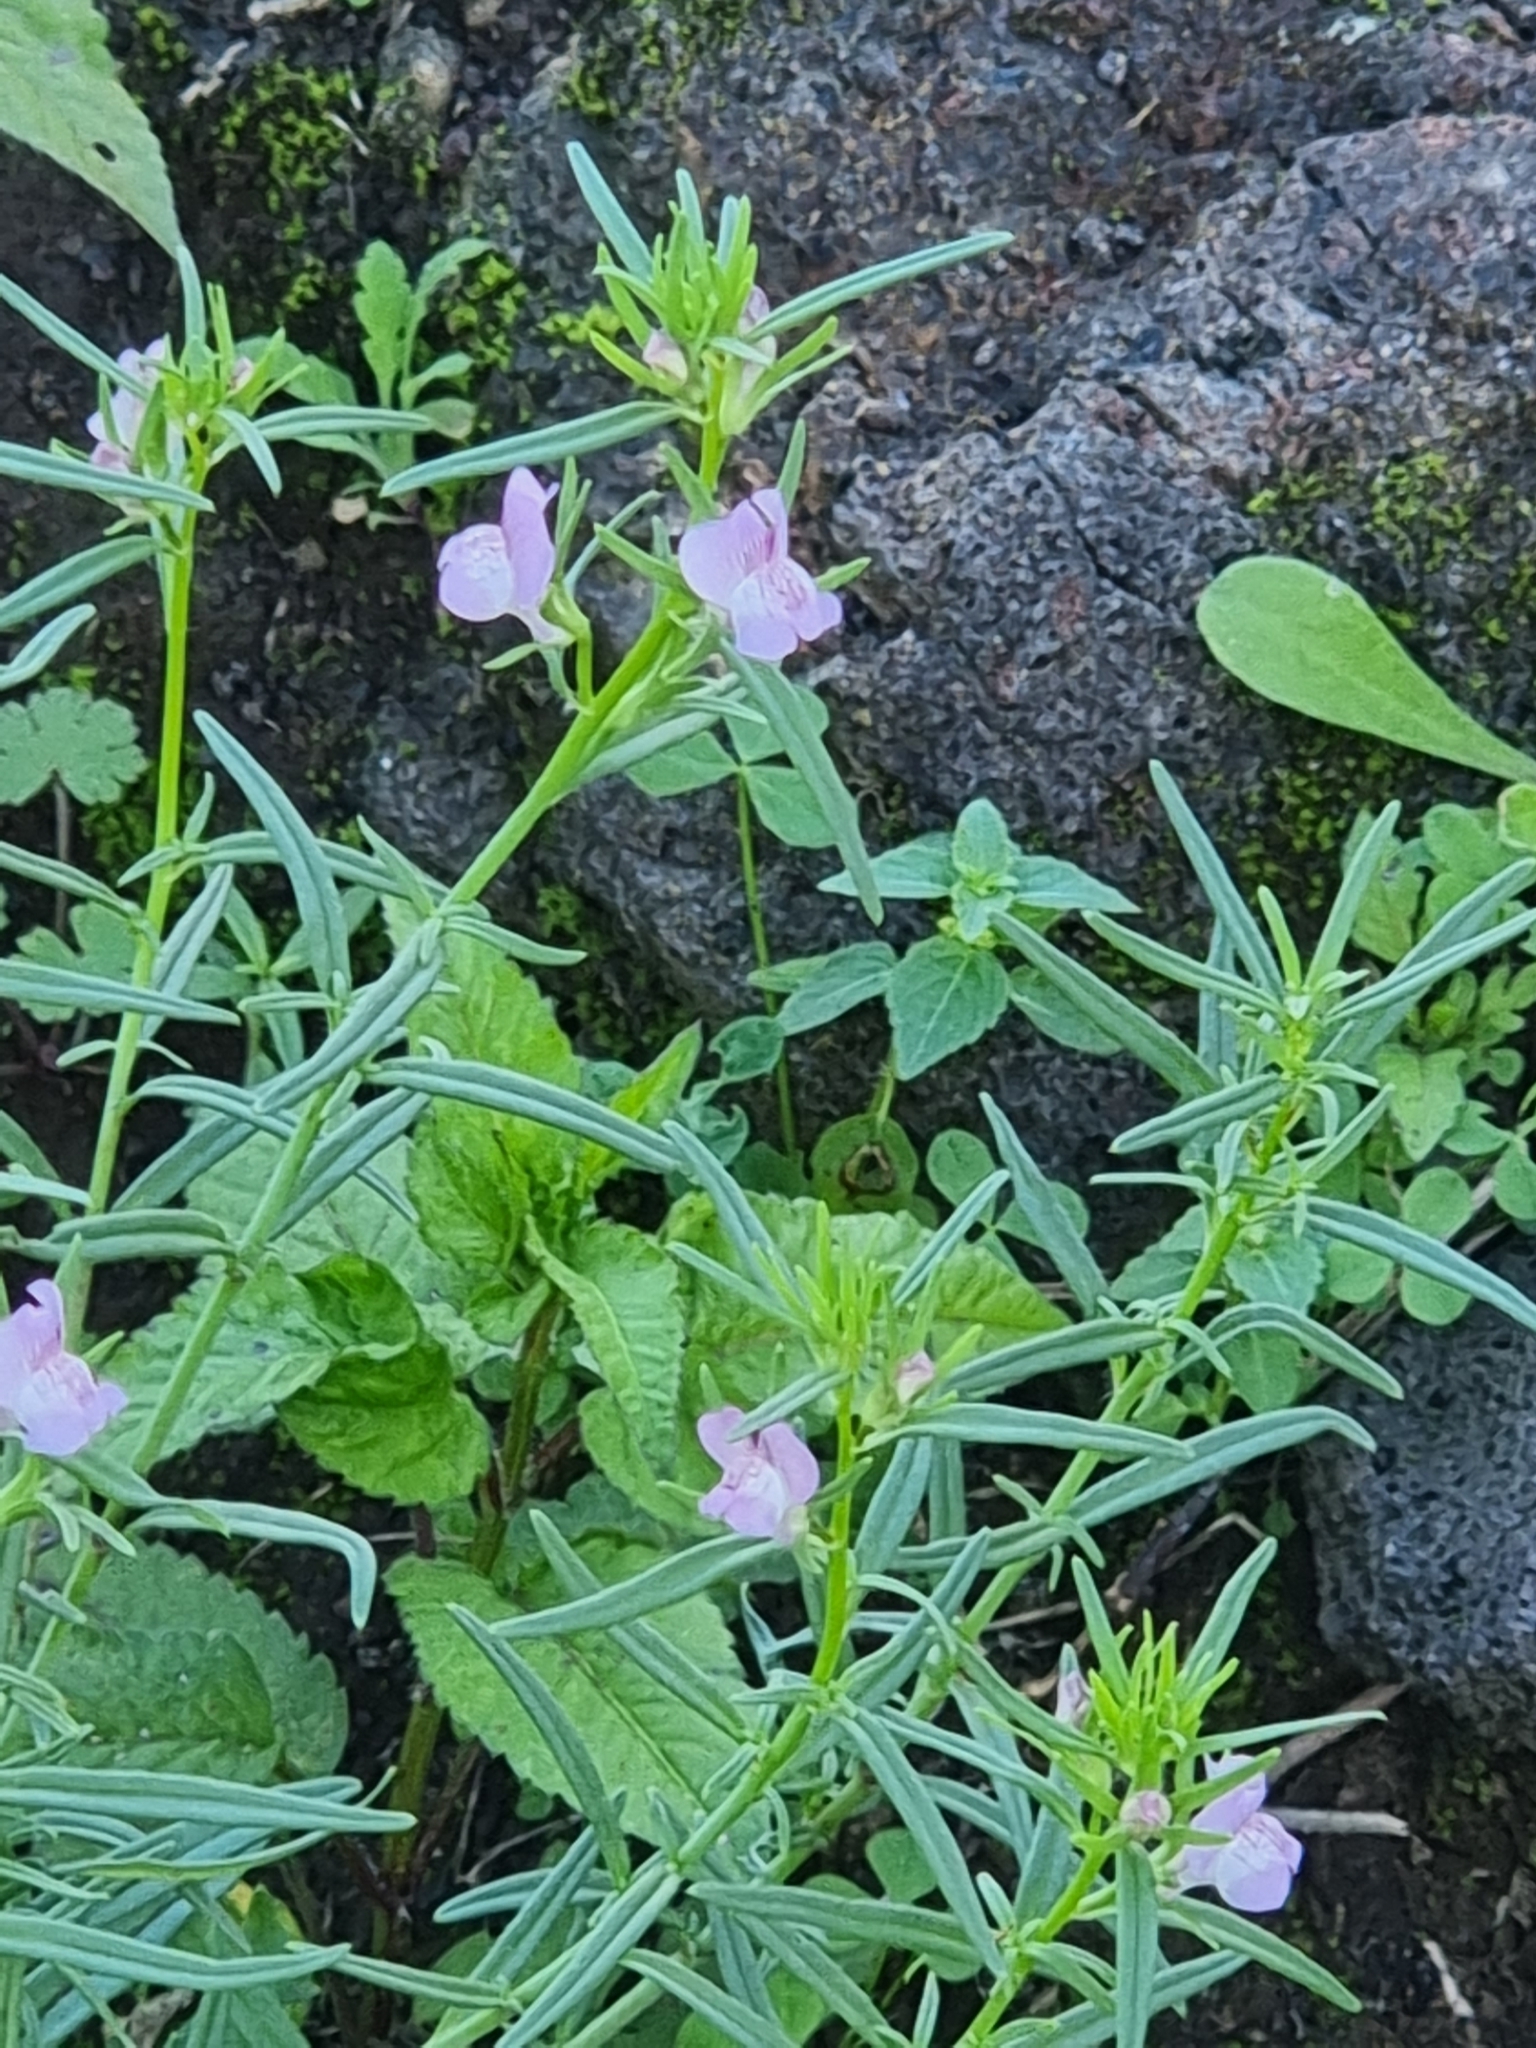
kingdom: Plantae
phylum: Tracheophyta
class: Magnoliopsida
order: Lamiales
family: Plantaginaceae
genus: Misopates
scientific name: Misopates orontium
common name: Weasel's-snout
